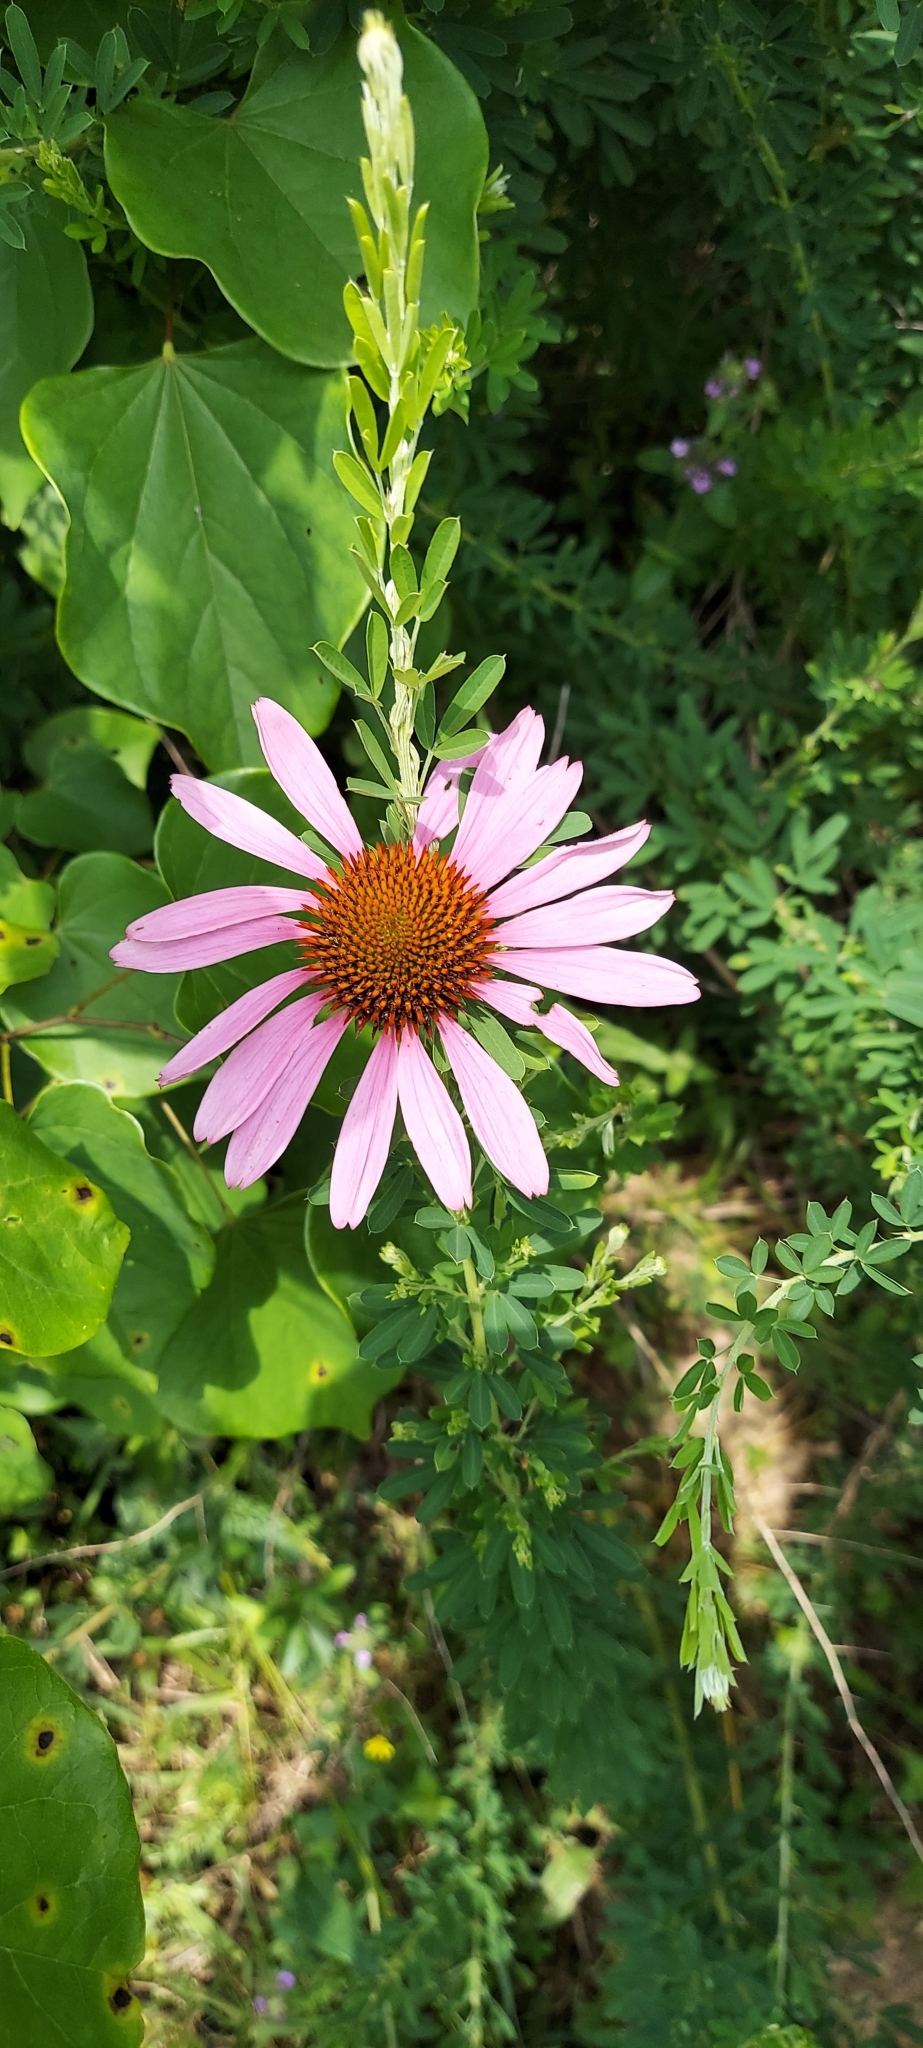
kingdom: Plantae
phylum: Tracheophyta
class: Magnoliopsida
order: Asterales
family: Asteraceae
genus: Echinacea
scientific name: Echinacea purpurea
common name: Broad-leaved purple coneflower
